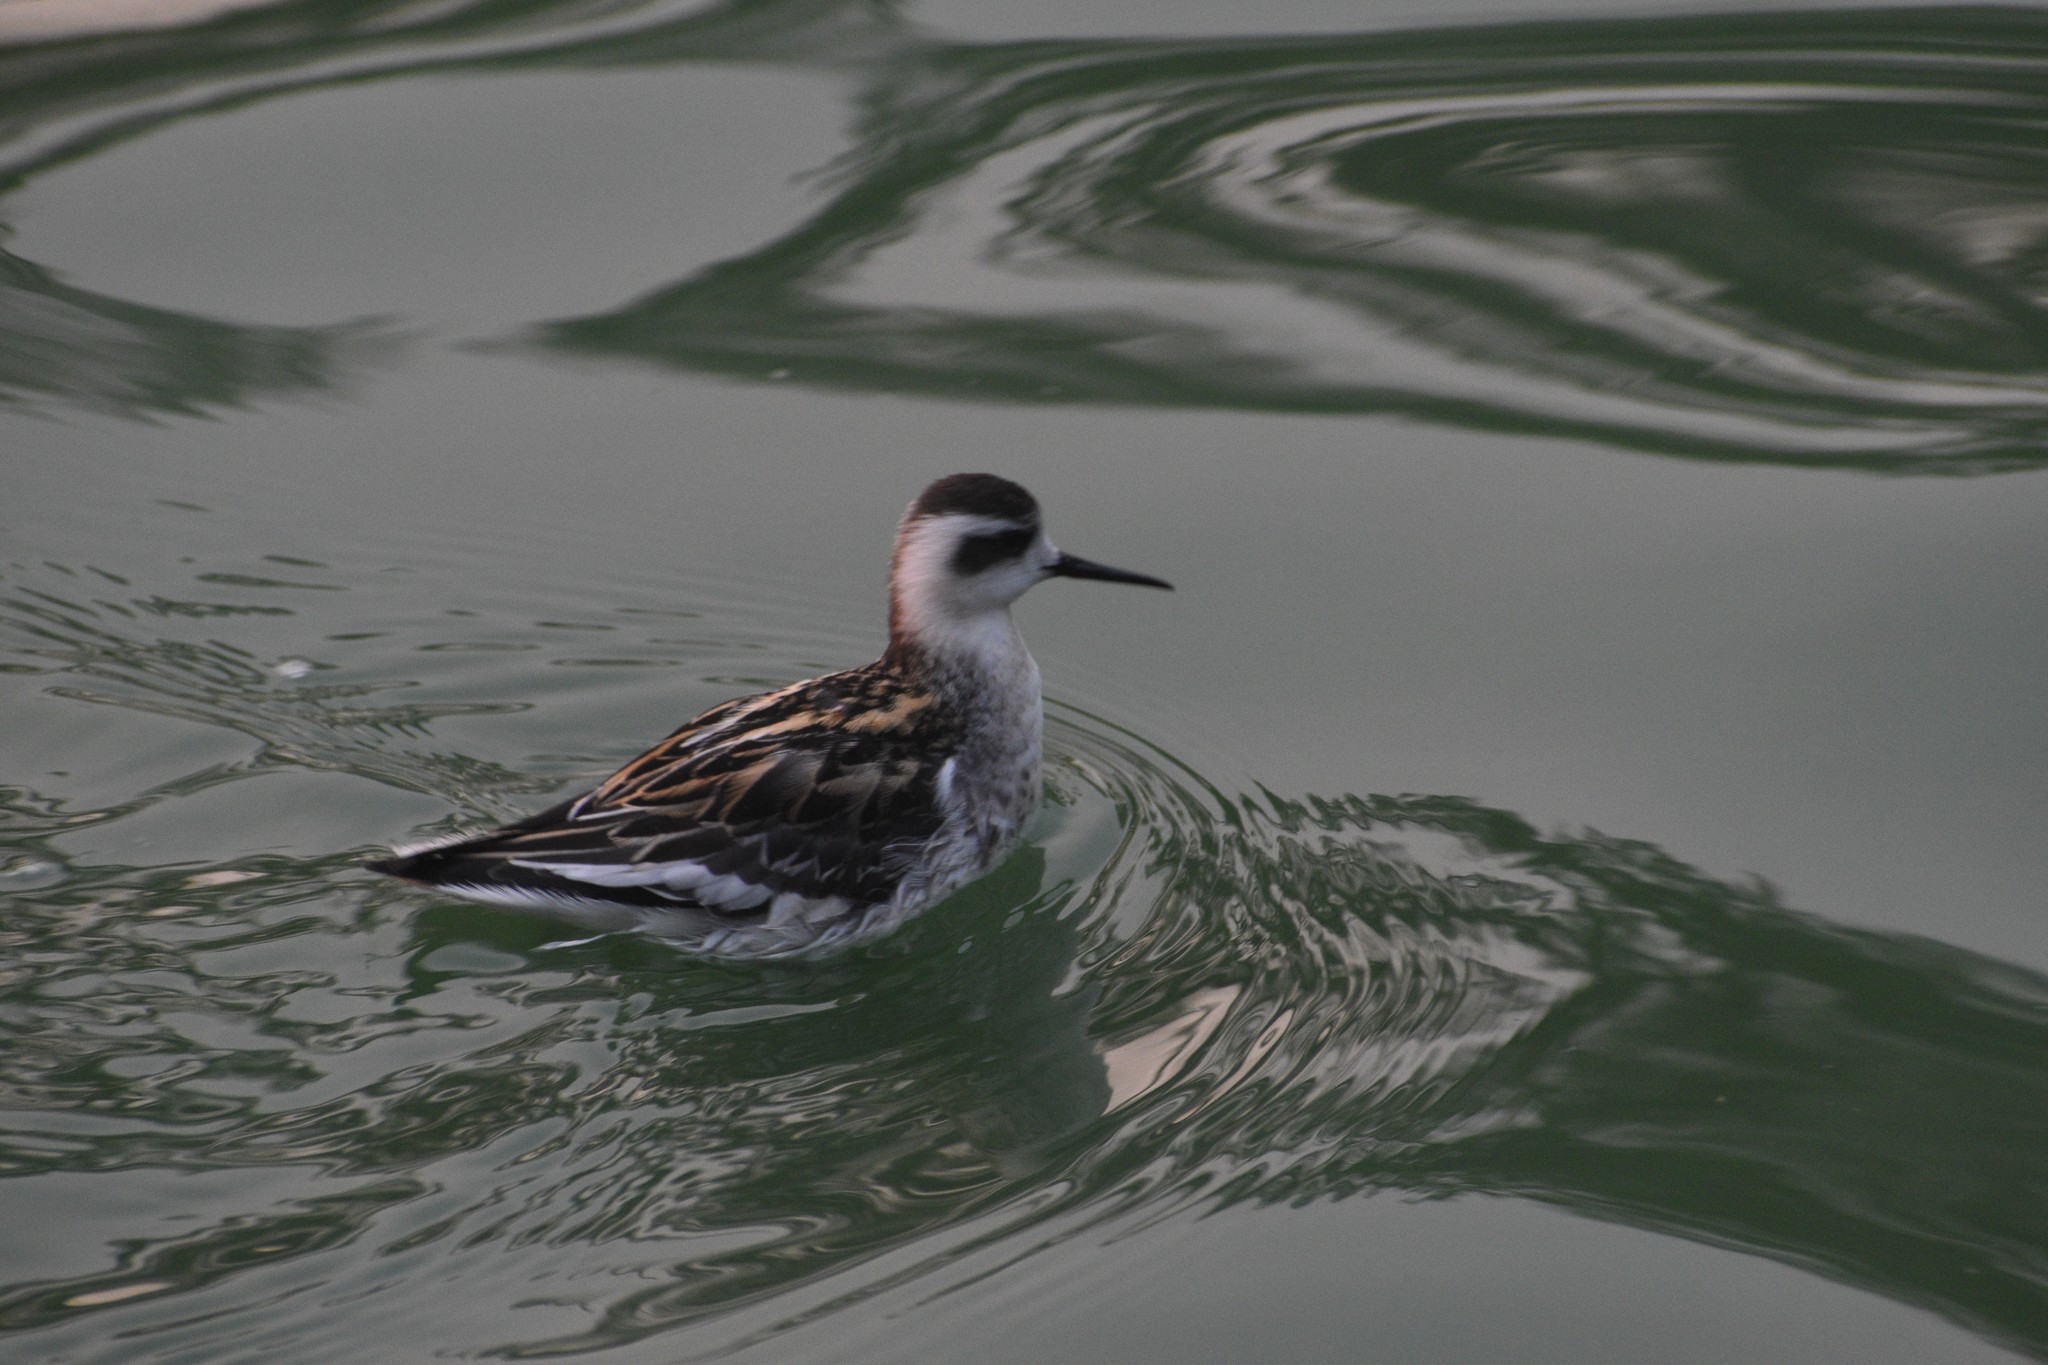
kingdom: Animalia
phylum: Chordata
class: Aves
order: Charadriiformes
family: Scolopacidae
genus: Phalaropus
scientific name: Phalaropus lobatus
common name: Red-necked phalarope
